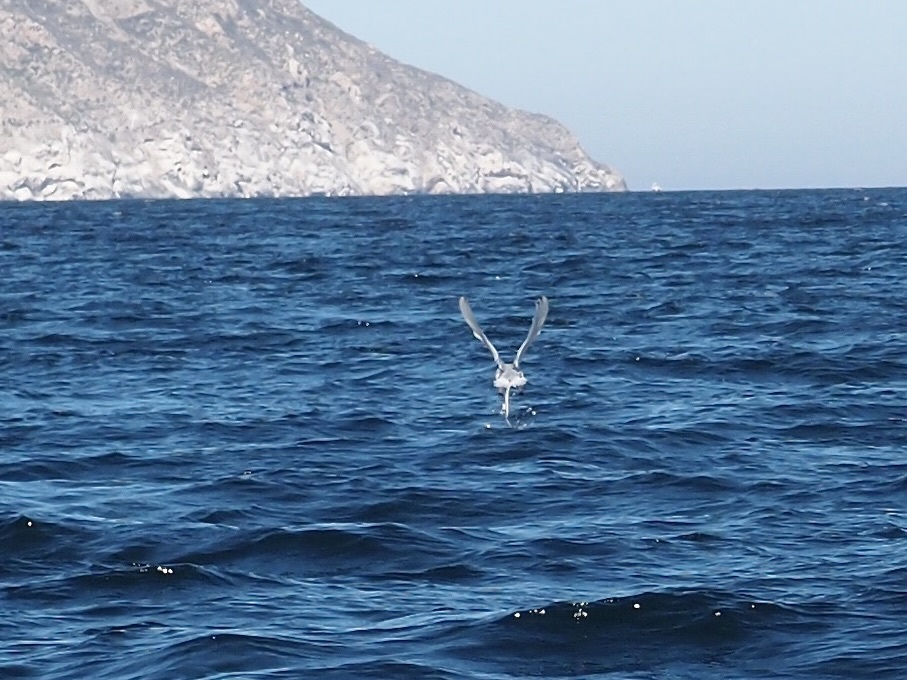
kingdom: Animalia
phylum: Chordata
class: Aves
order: Phaethontiformes
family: Phaethontidae
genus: Phaethon
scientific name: Phaethon aethereus
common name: Red-billed tropicbird
